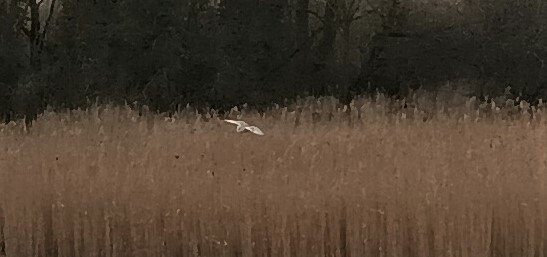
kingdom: Animalia
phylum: Chordata
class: Aves
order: Strigiformes
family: Tytonidae
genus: Tyto
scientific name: Tyto alba
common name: Barn owl
